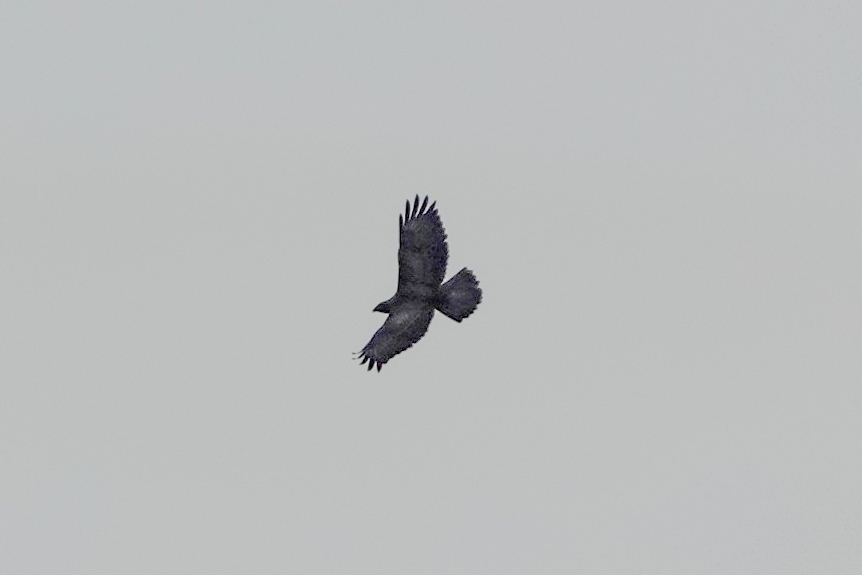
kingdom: Animalia
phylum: Chordata
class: Aves
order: Accipitriformes
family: Accipitridae
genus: Buteo
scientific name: Buteo buteo
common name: Common buzzard
